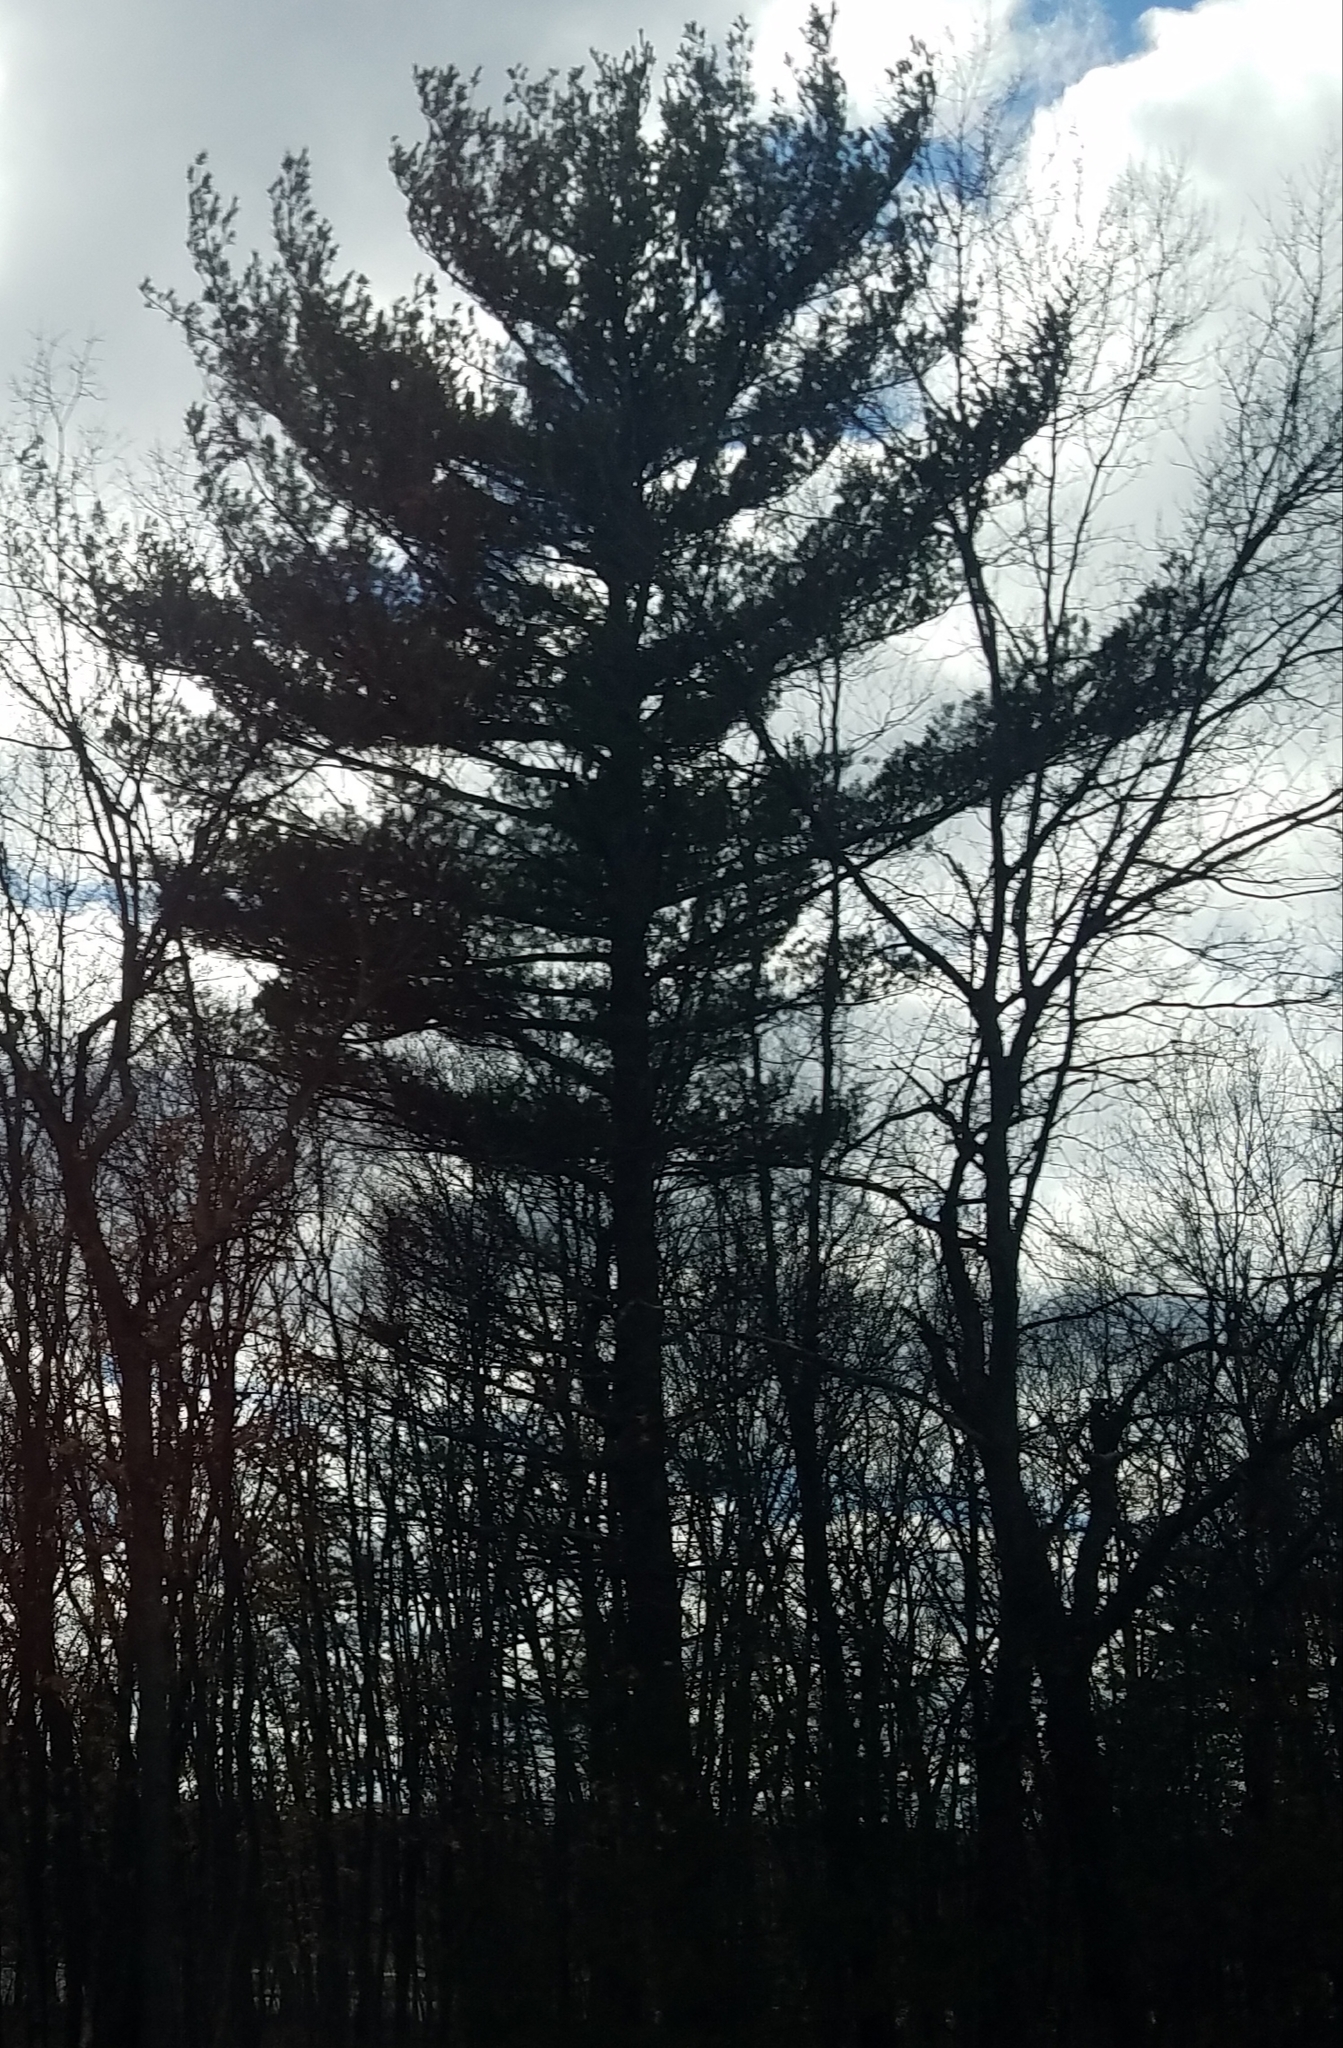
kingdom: Plantae
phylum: Tracheophyta
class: Pinopsida
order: Pinales
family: Pinaceae
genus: Pinus
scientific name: Pinus strobus
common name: Weymouth pine
